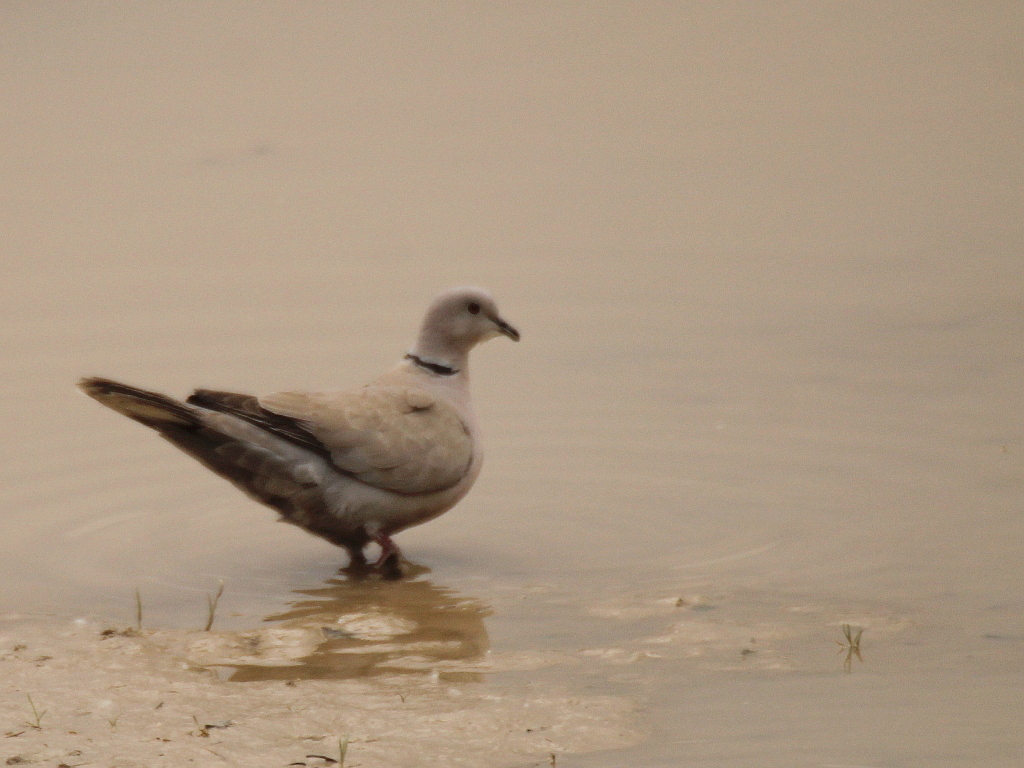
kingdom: Animalia
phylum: Chordata
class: Aves
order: Columbiformes
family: Columbidae
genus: Streptopelia
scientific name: Streptopelia decaocto
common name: Eurasian collared dove
